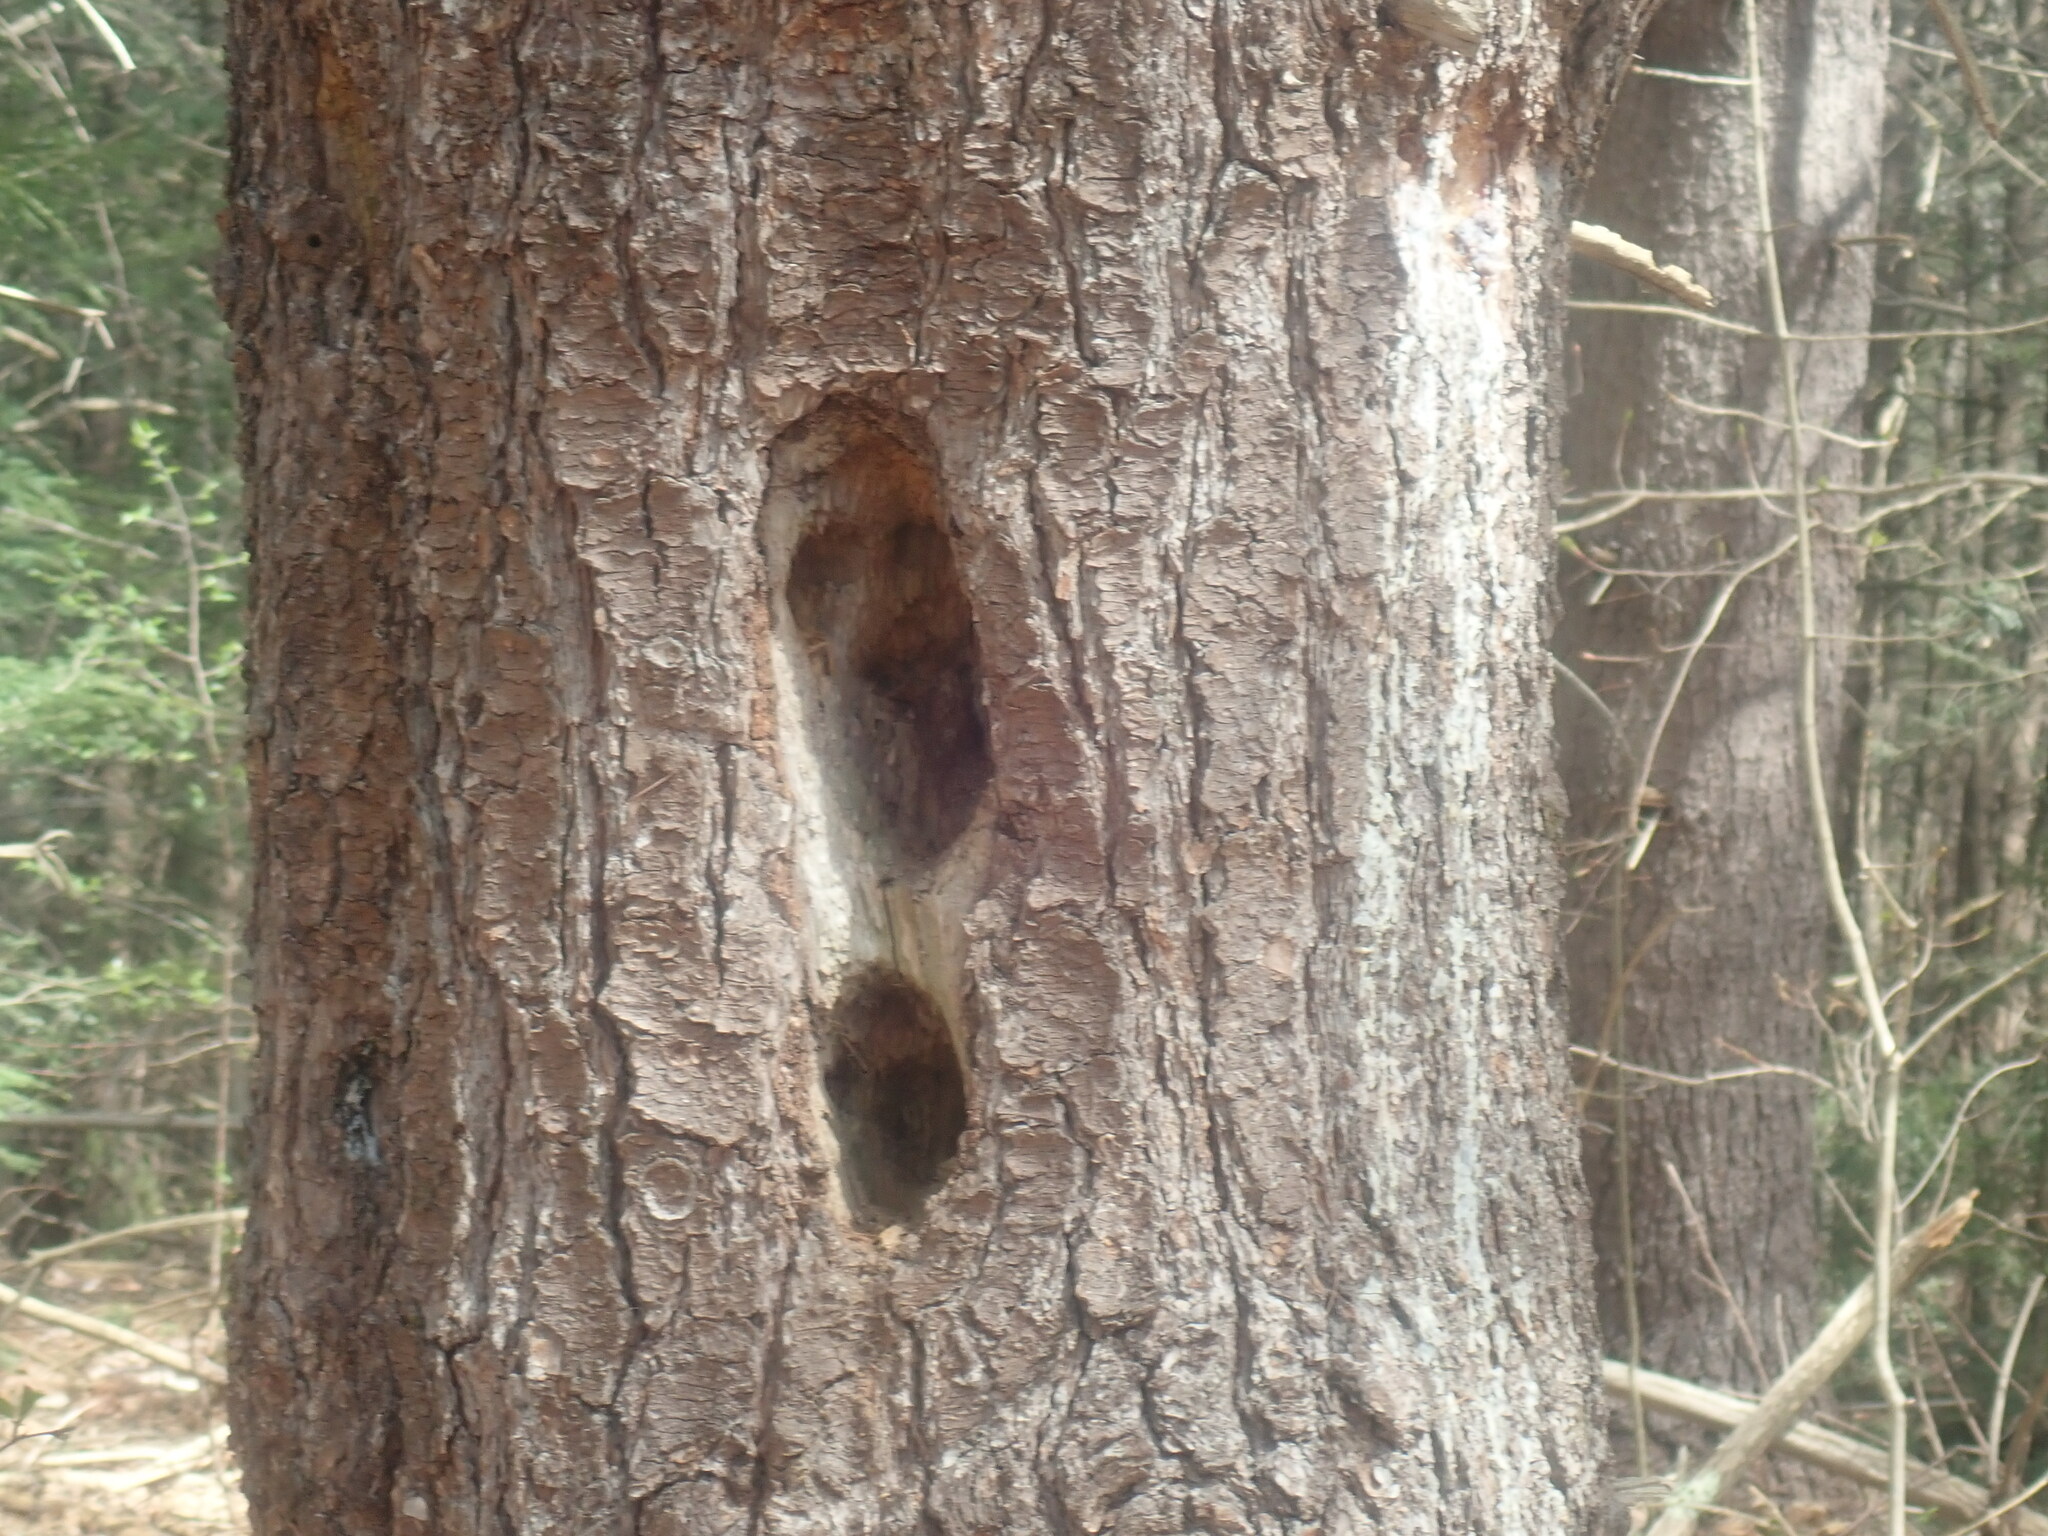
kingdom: Animalia
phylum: Chordata
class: Aves
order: Piciformes
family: Picidae
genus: Dryocopus
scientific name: Dryocopus pileatus
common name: Pileated woodpecker
